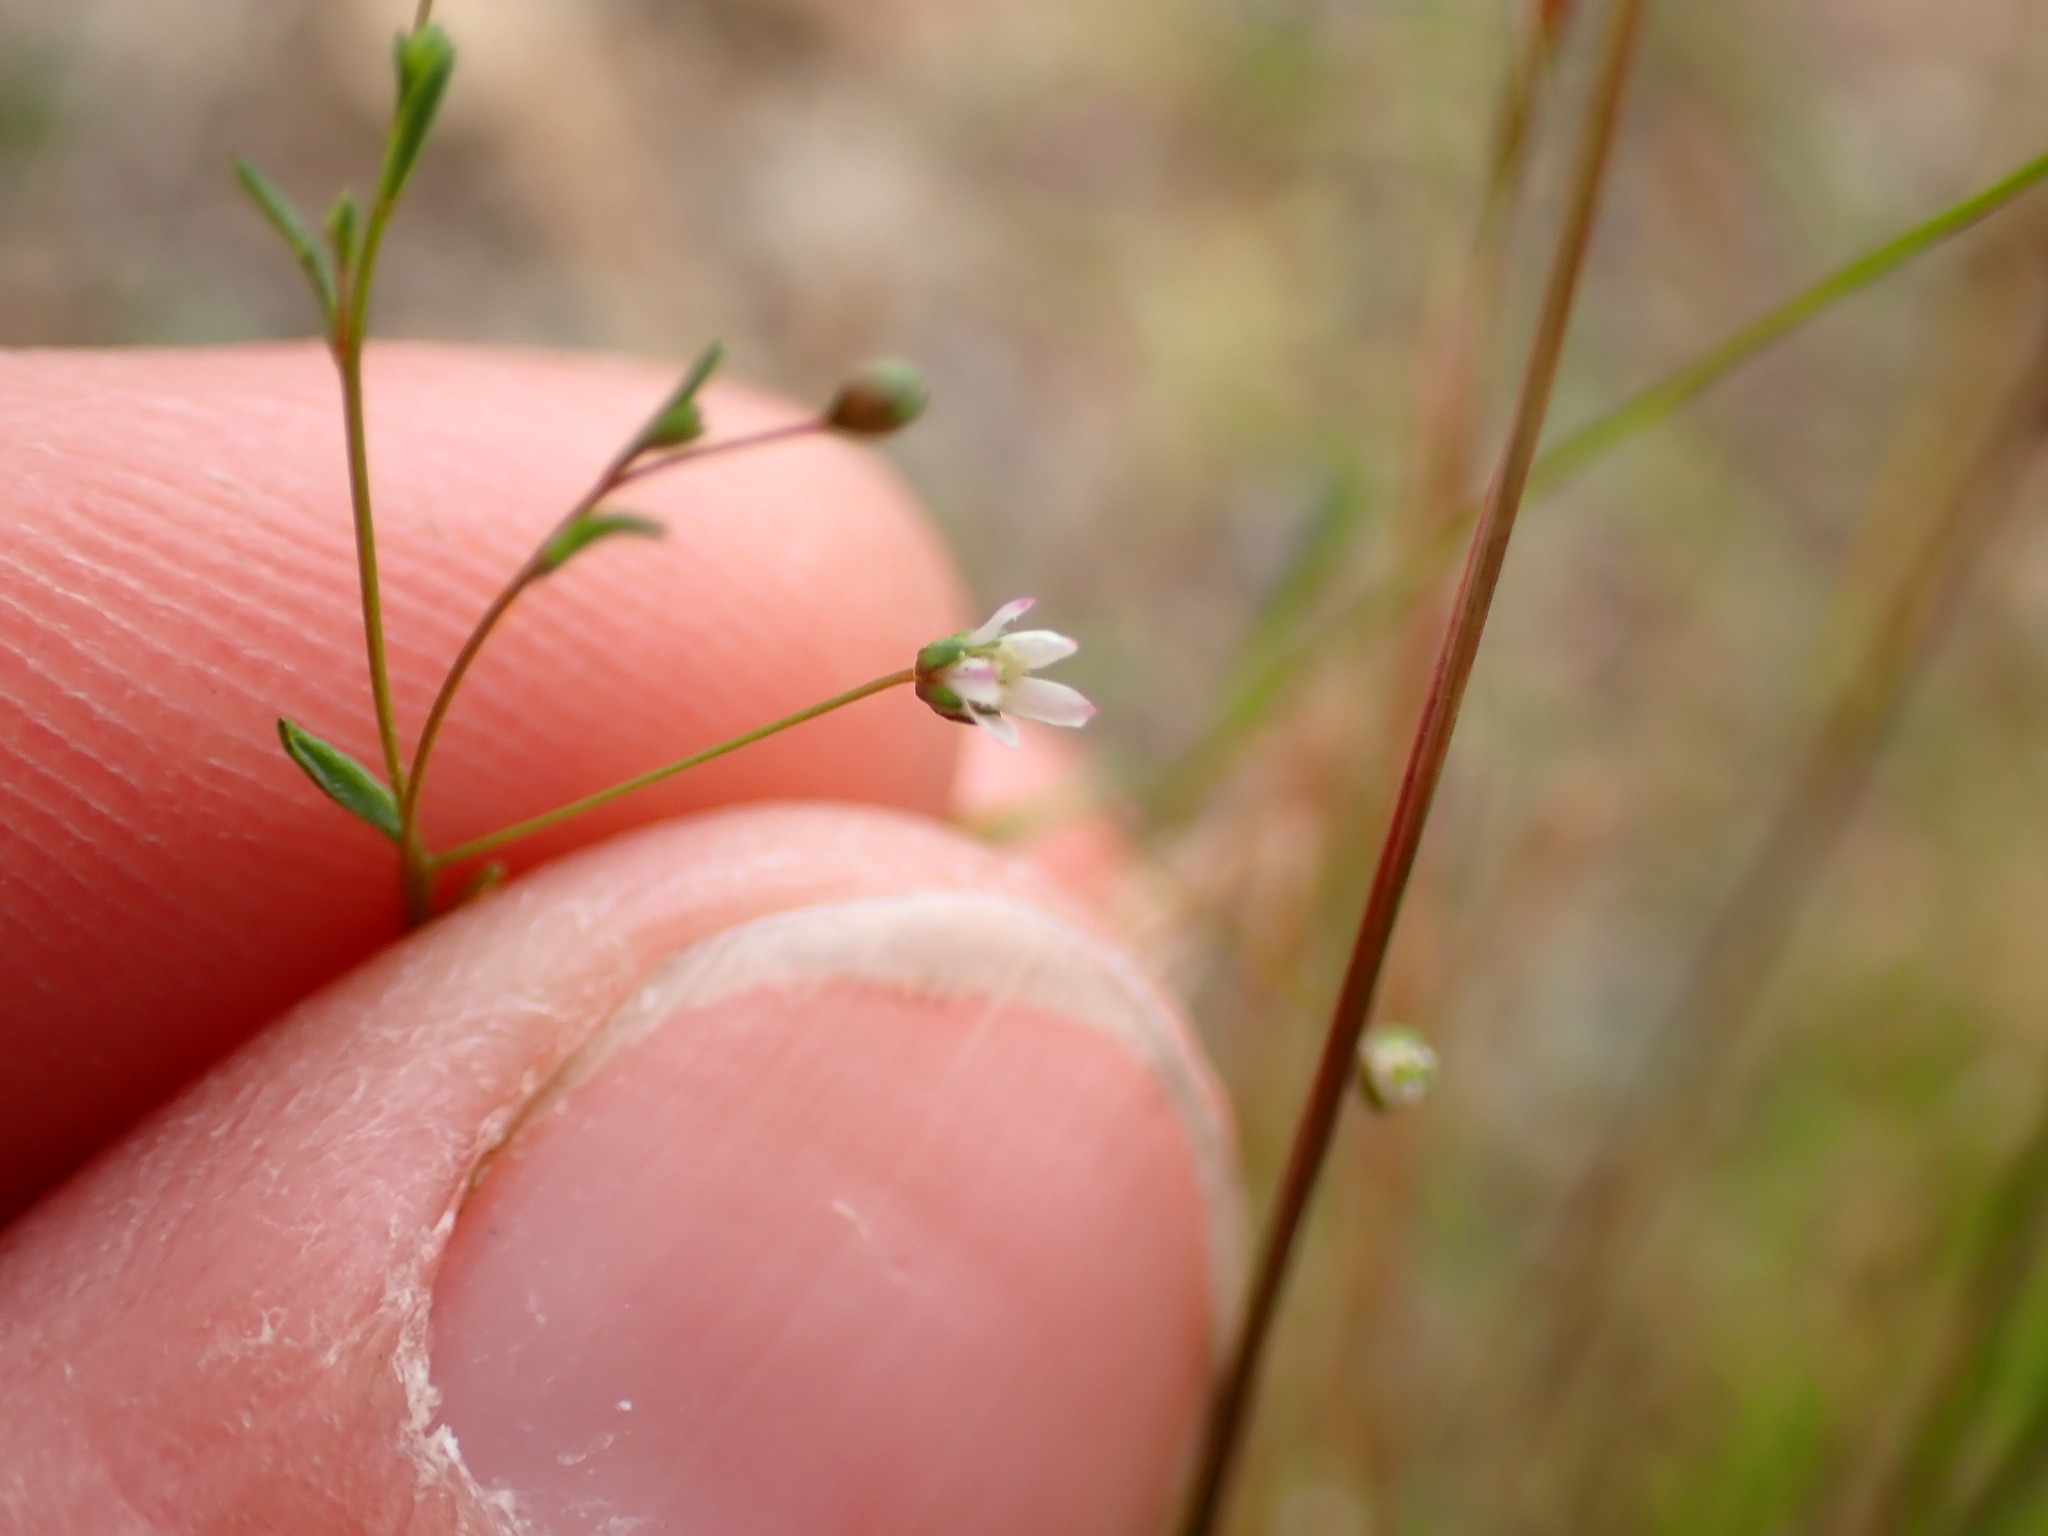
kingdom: Plantae
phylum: Tracheophyta
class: Magnoliopsida
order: Malpighiales
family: Linaceae
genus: Hesperolinon
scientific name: Hesperolinon micranthum
